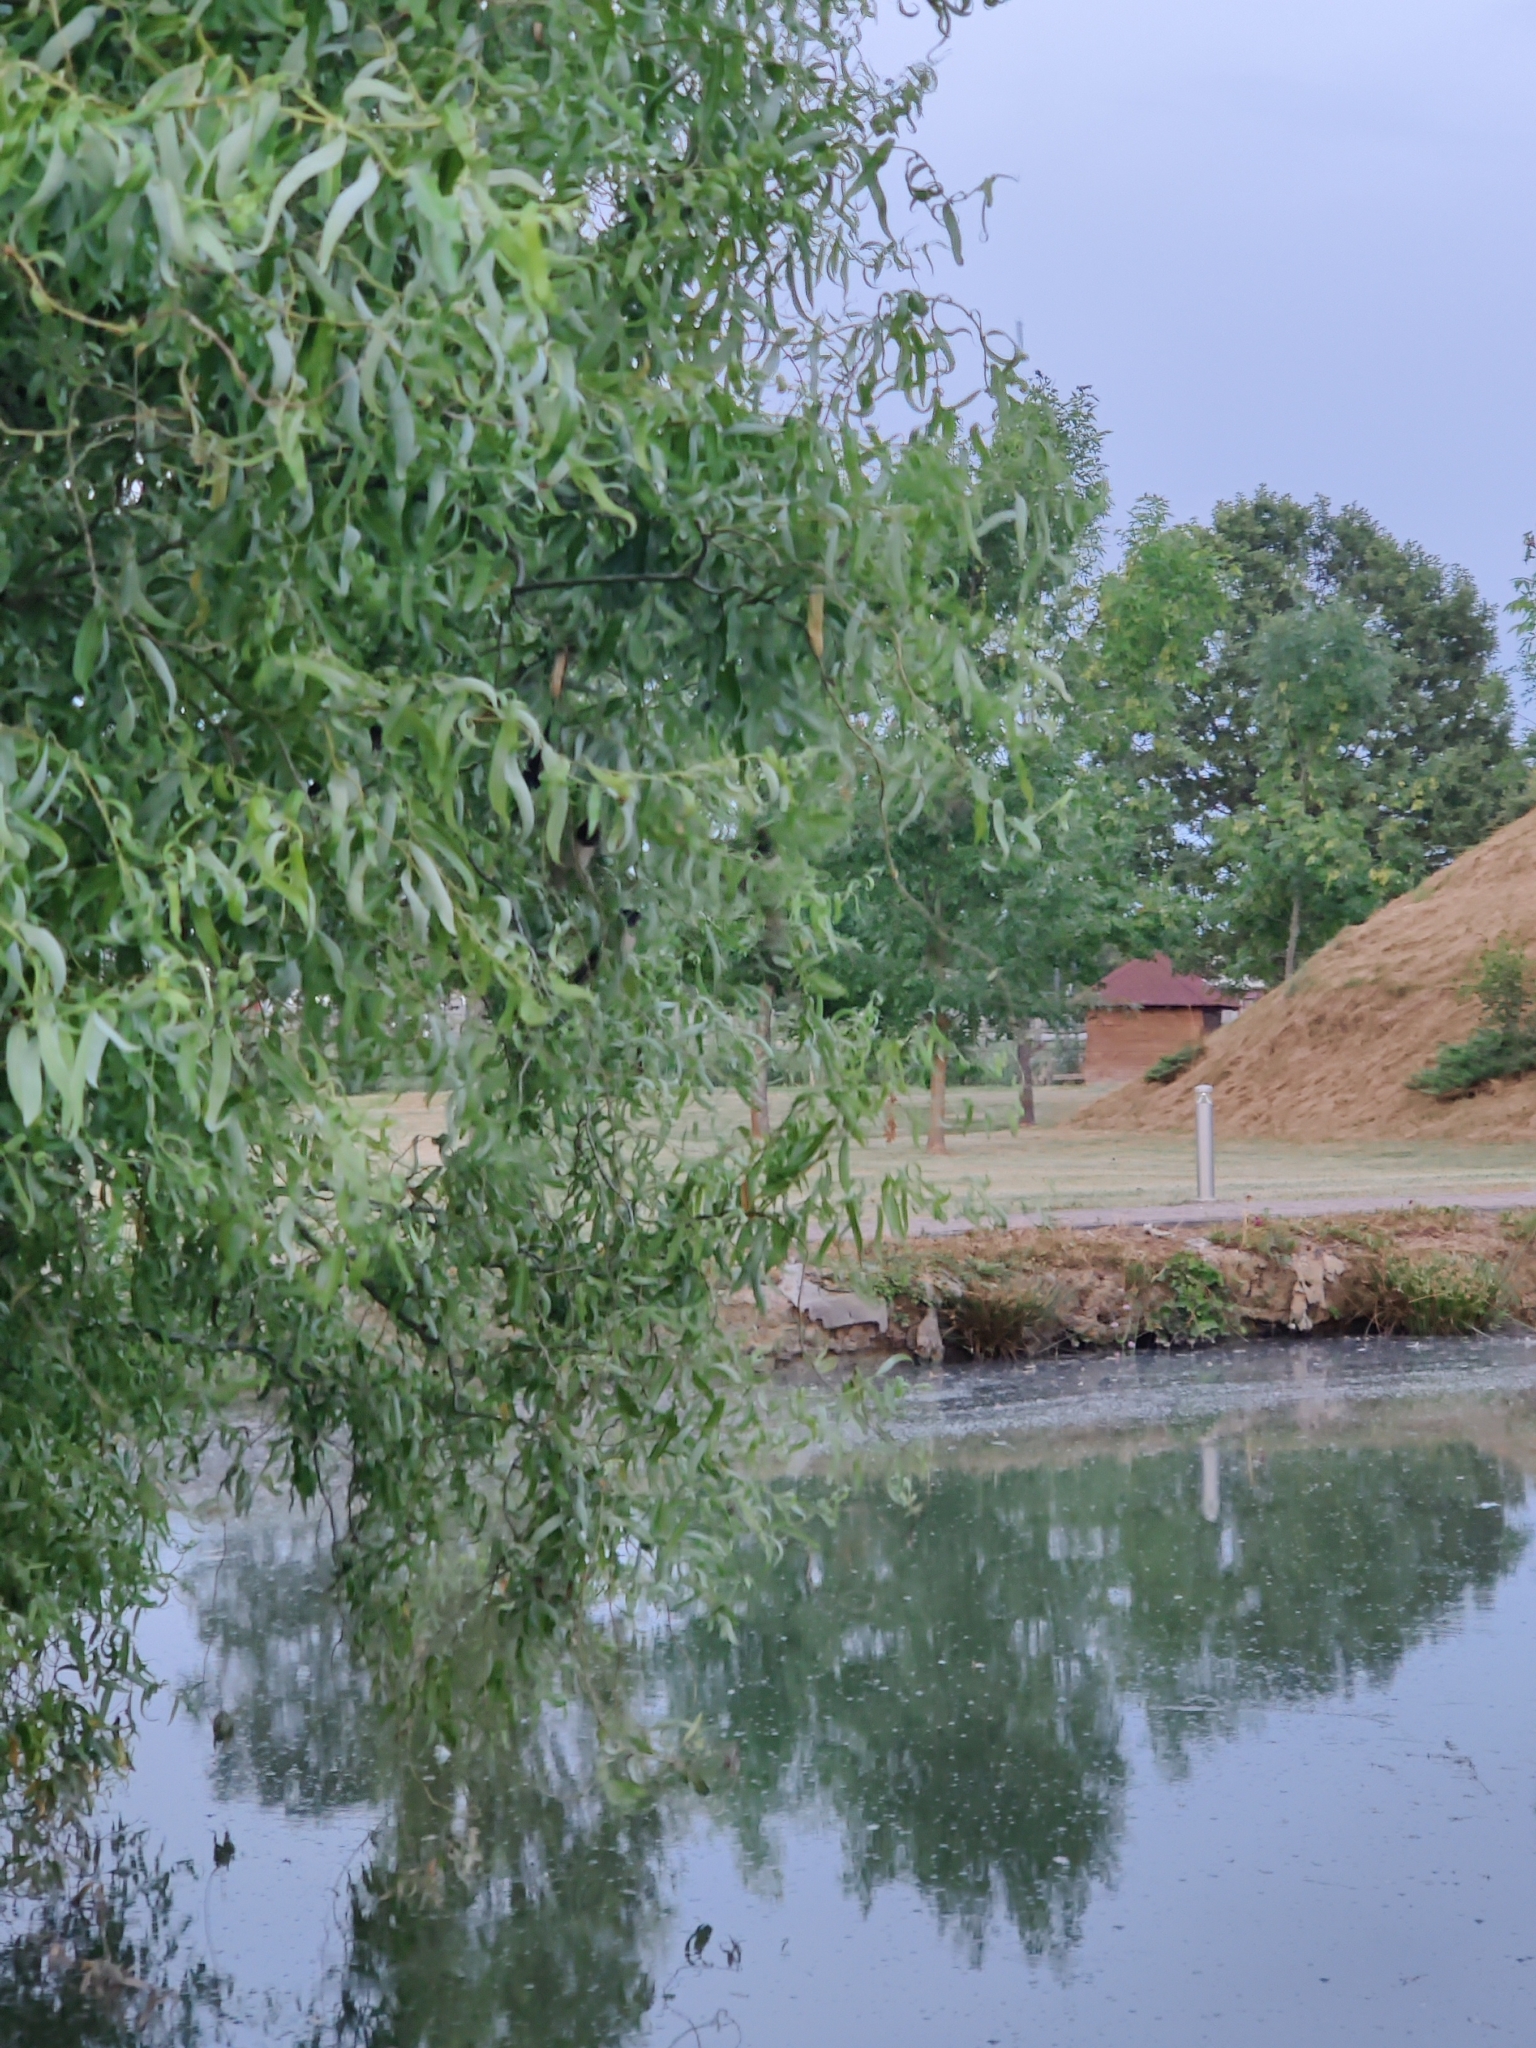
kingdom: Animalia
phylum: Chordata
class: Aves
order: Passeriformes
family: Hirundinidae
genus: Hirundo
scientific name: Hirundo rustica
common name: Barn swallow
